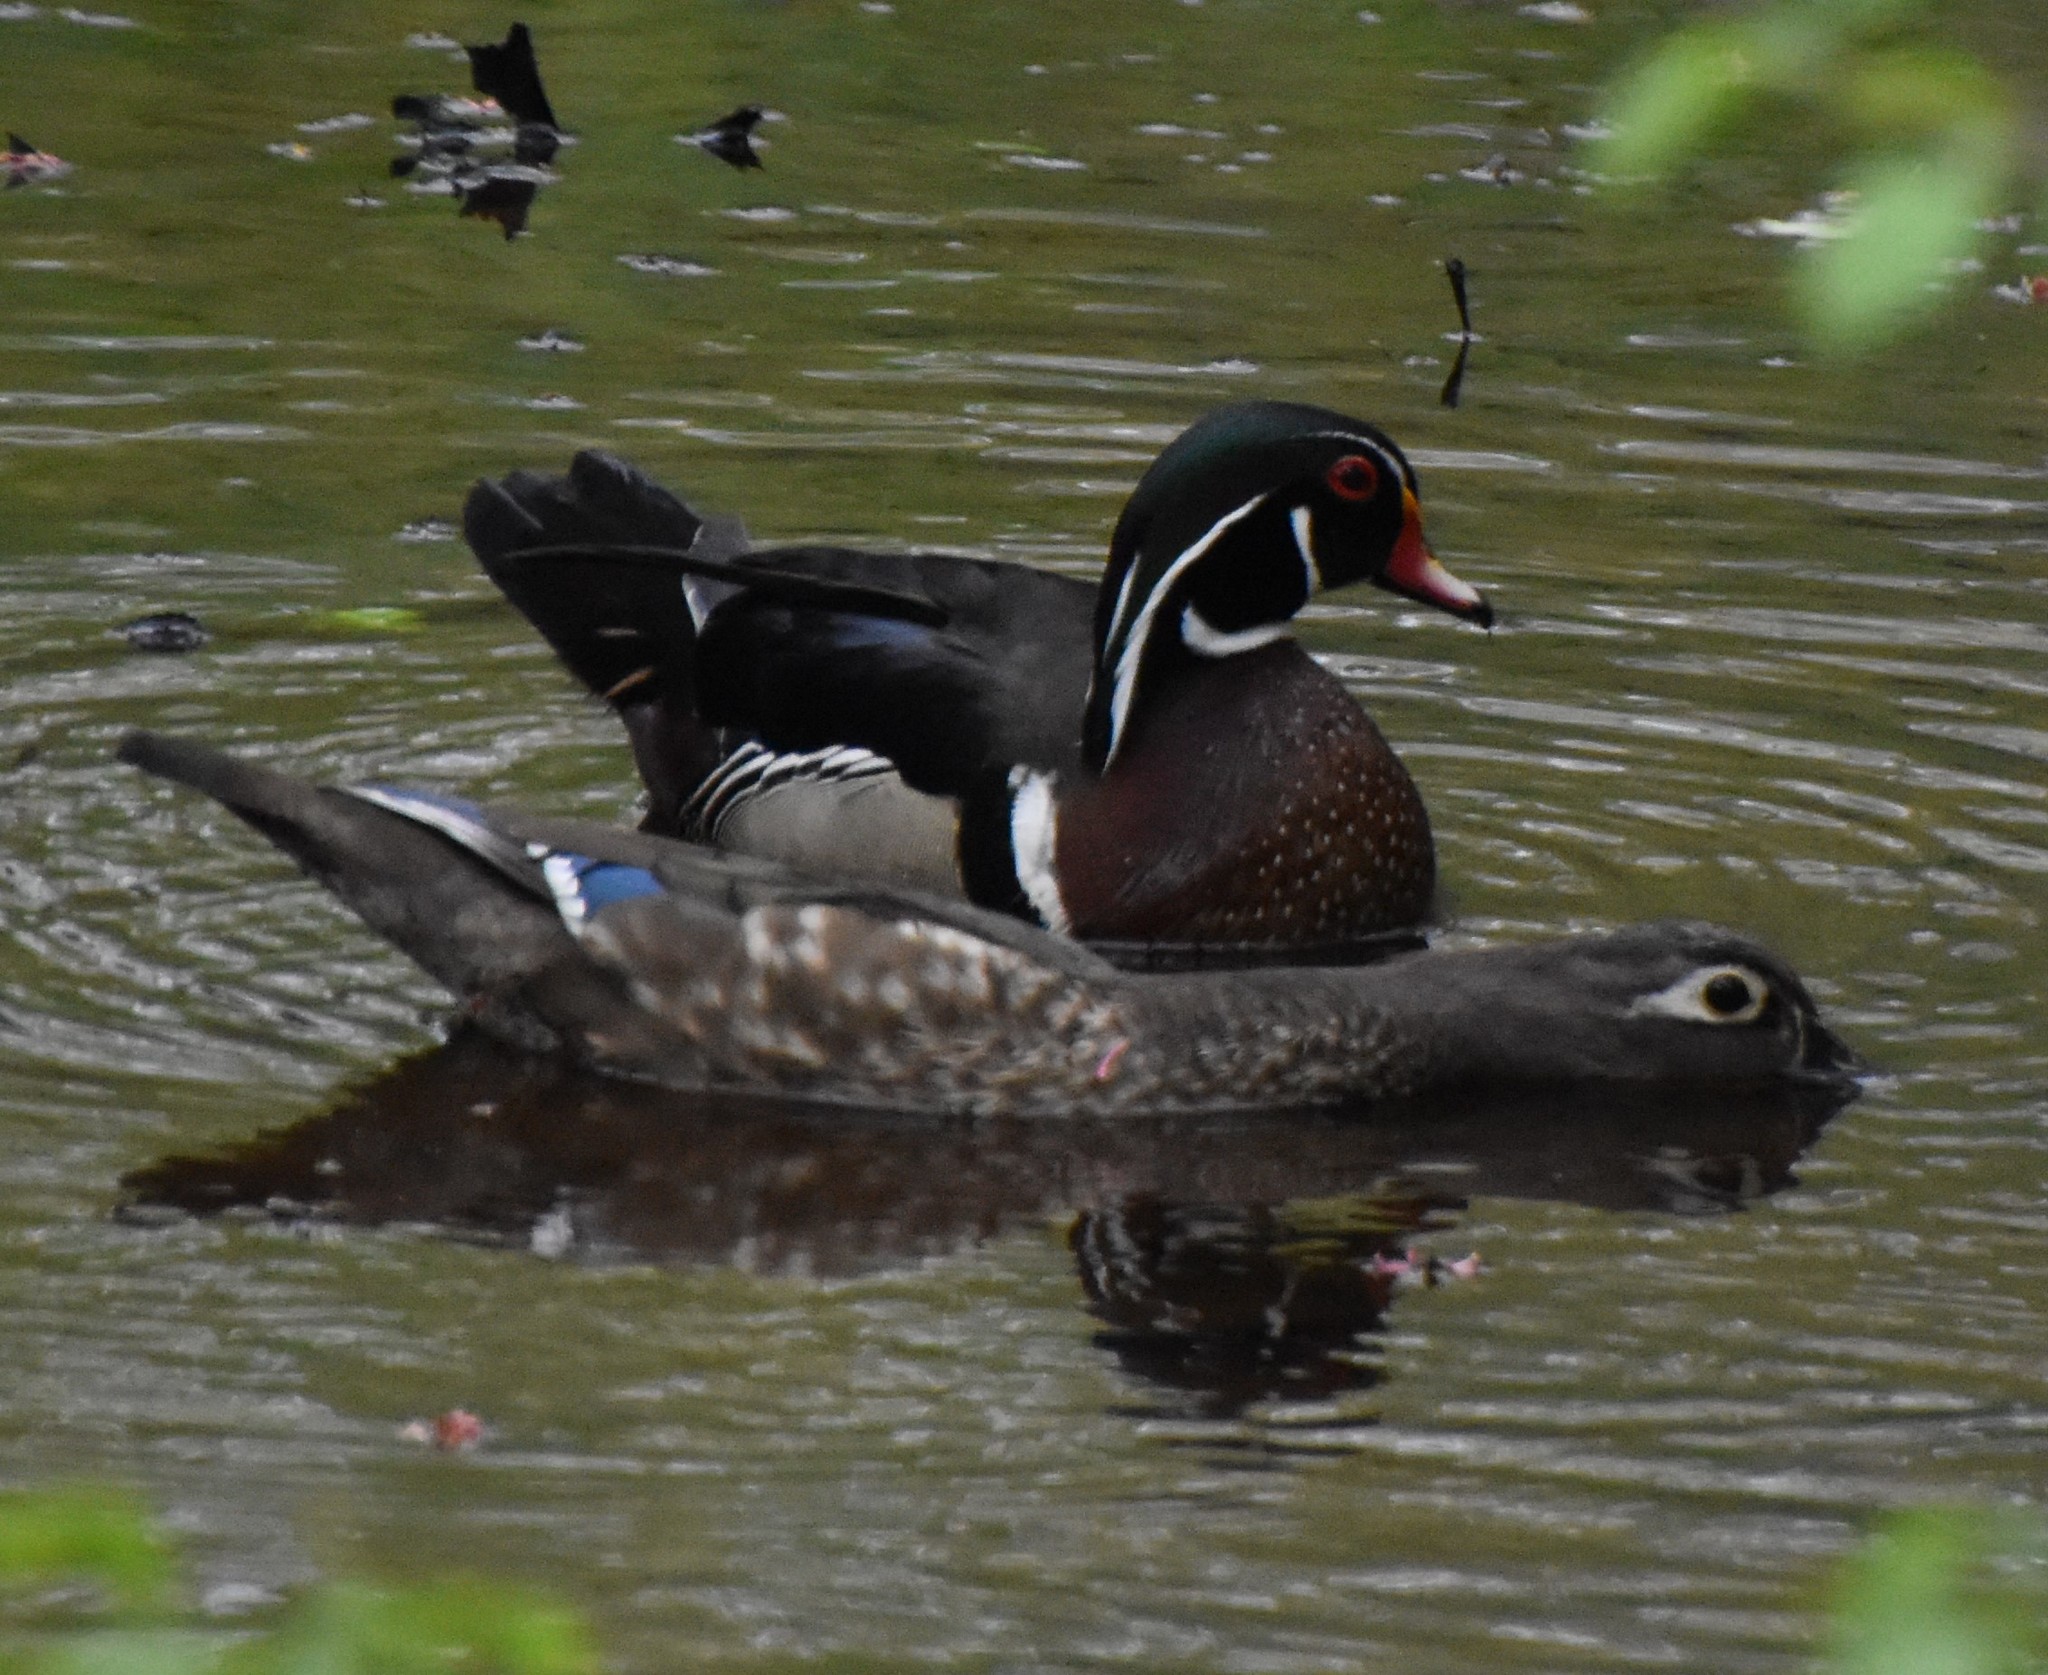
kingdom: Animalia
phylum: Chordata
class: Aves
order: Anseriformes
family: Anatidae
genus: Aix
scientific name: Aix sponsa
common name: Wood duck
